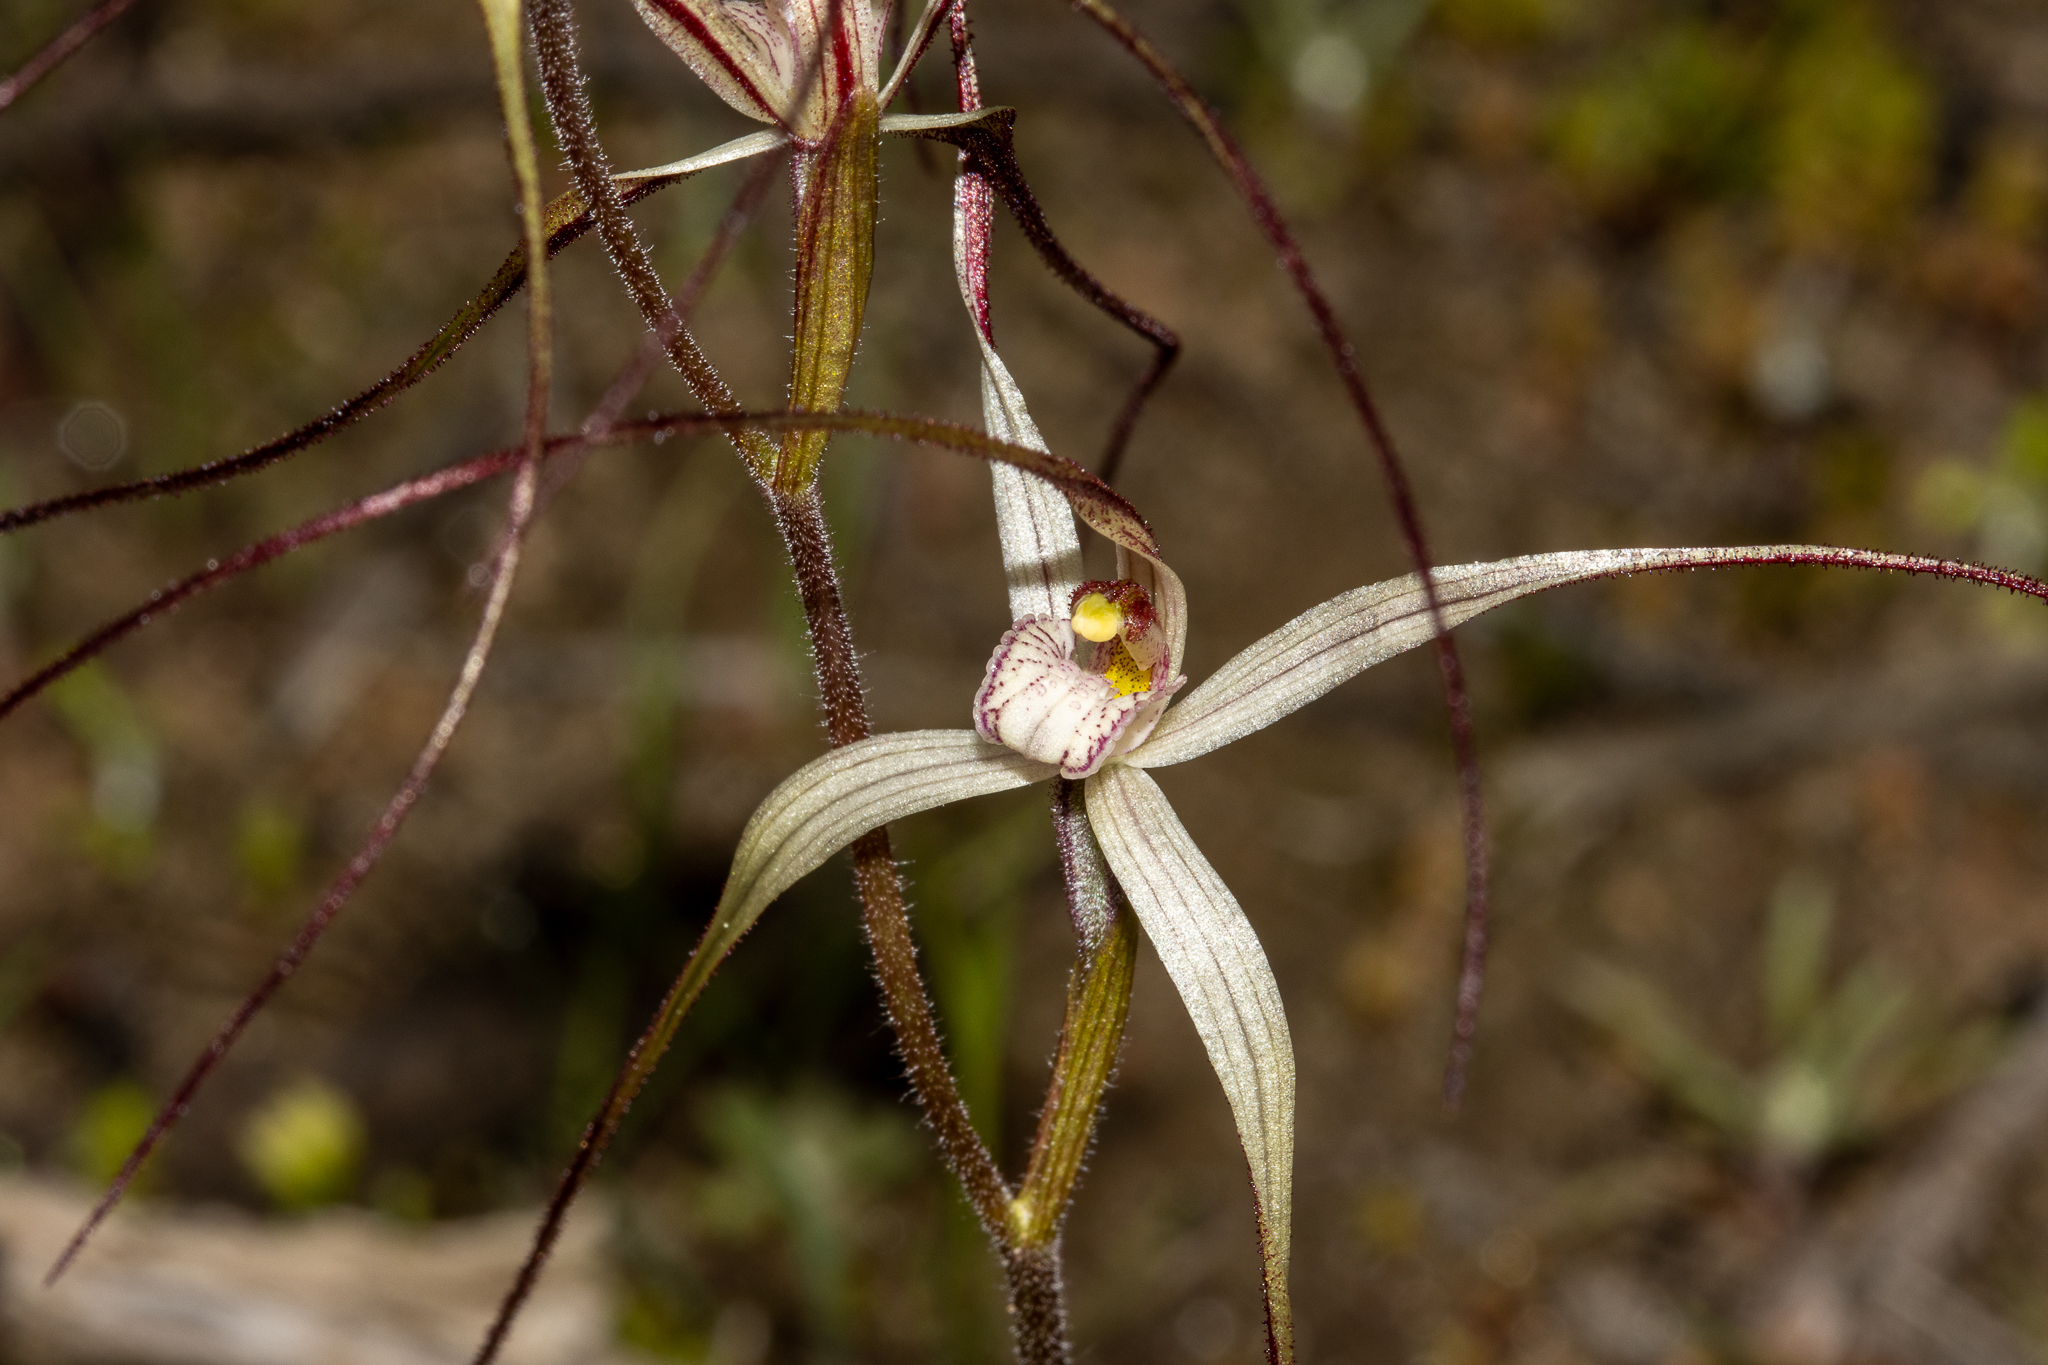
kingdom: Plantae
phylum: Tracheophyta
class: Liliopsida
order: Asparagales
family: Orchidaceae
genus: Caladenia
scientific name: Caladenia capillata
